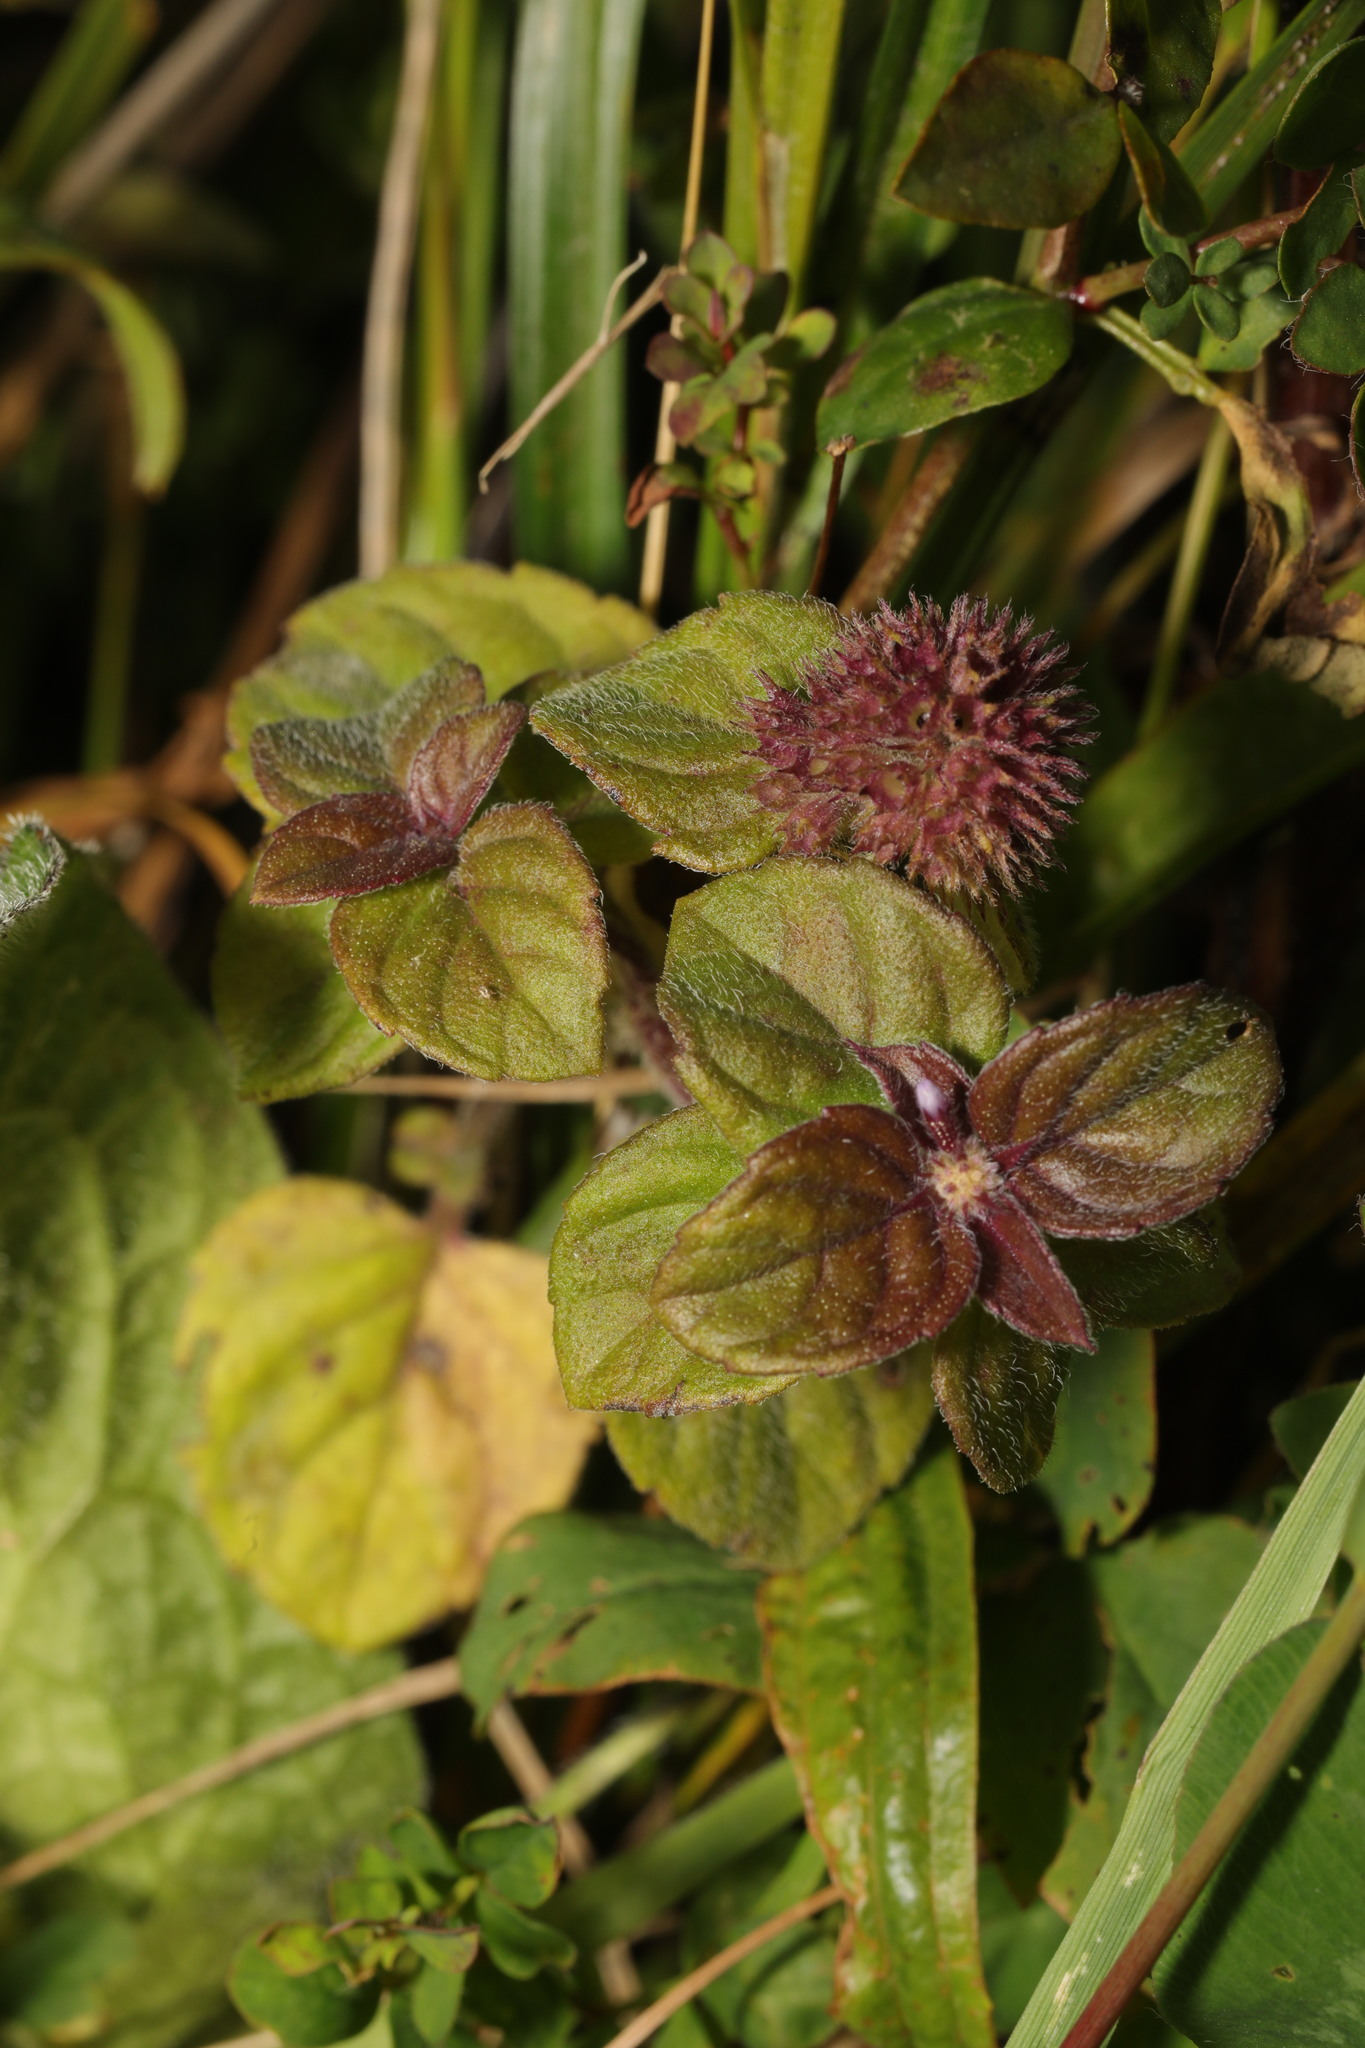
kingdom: Plantae
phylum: Tracheophyta
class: Magnoliopsida
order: Lamiales
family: Lamiaceae
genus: Mentha
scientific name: Mentha aquatica
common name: Water mint
